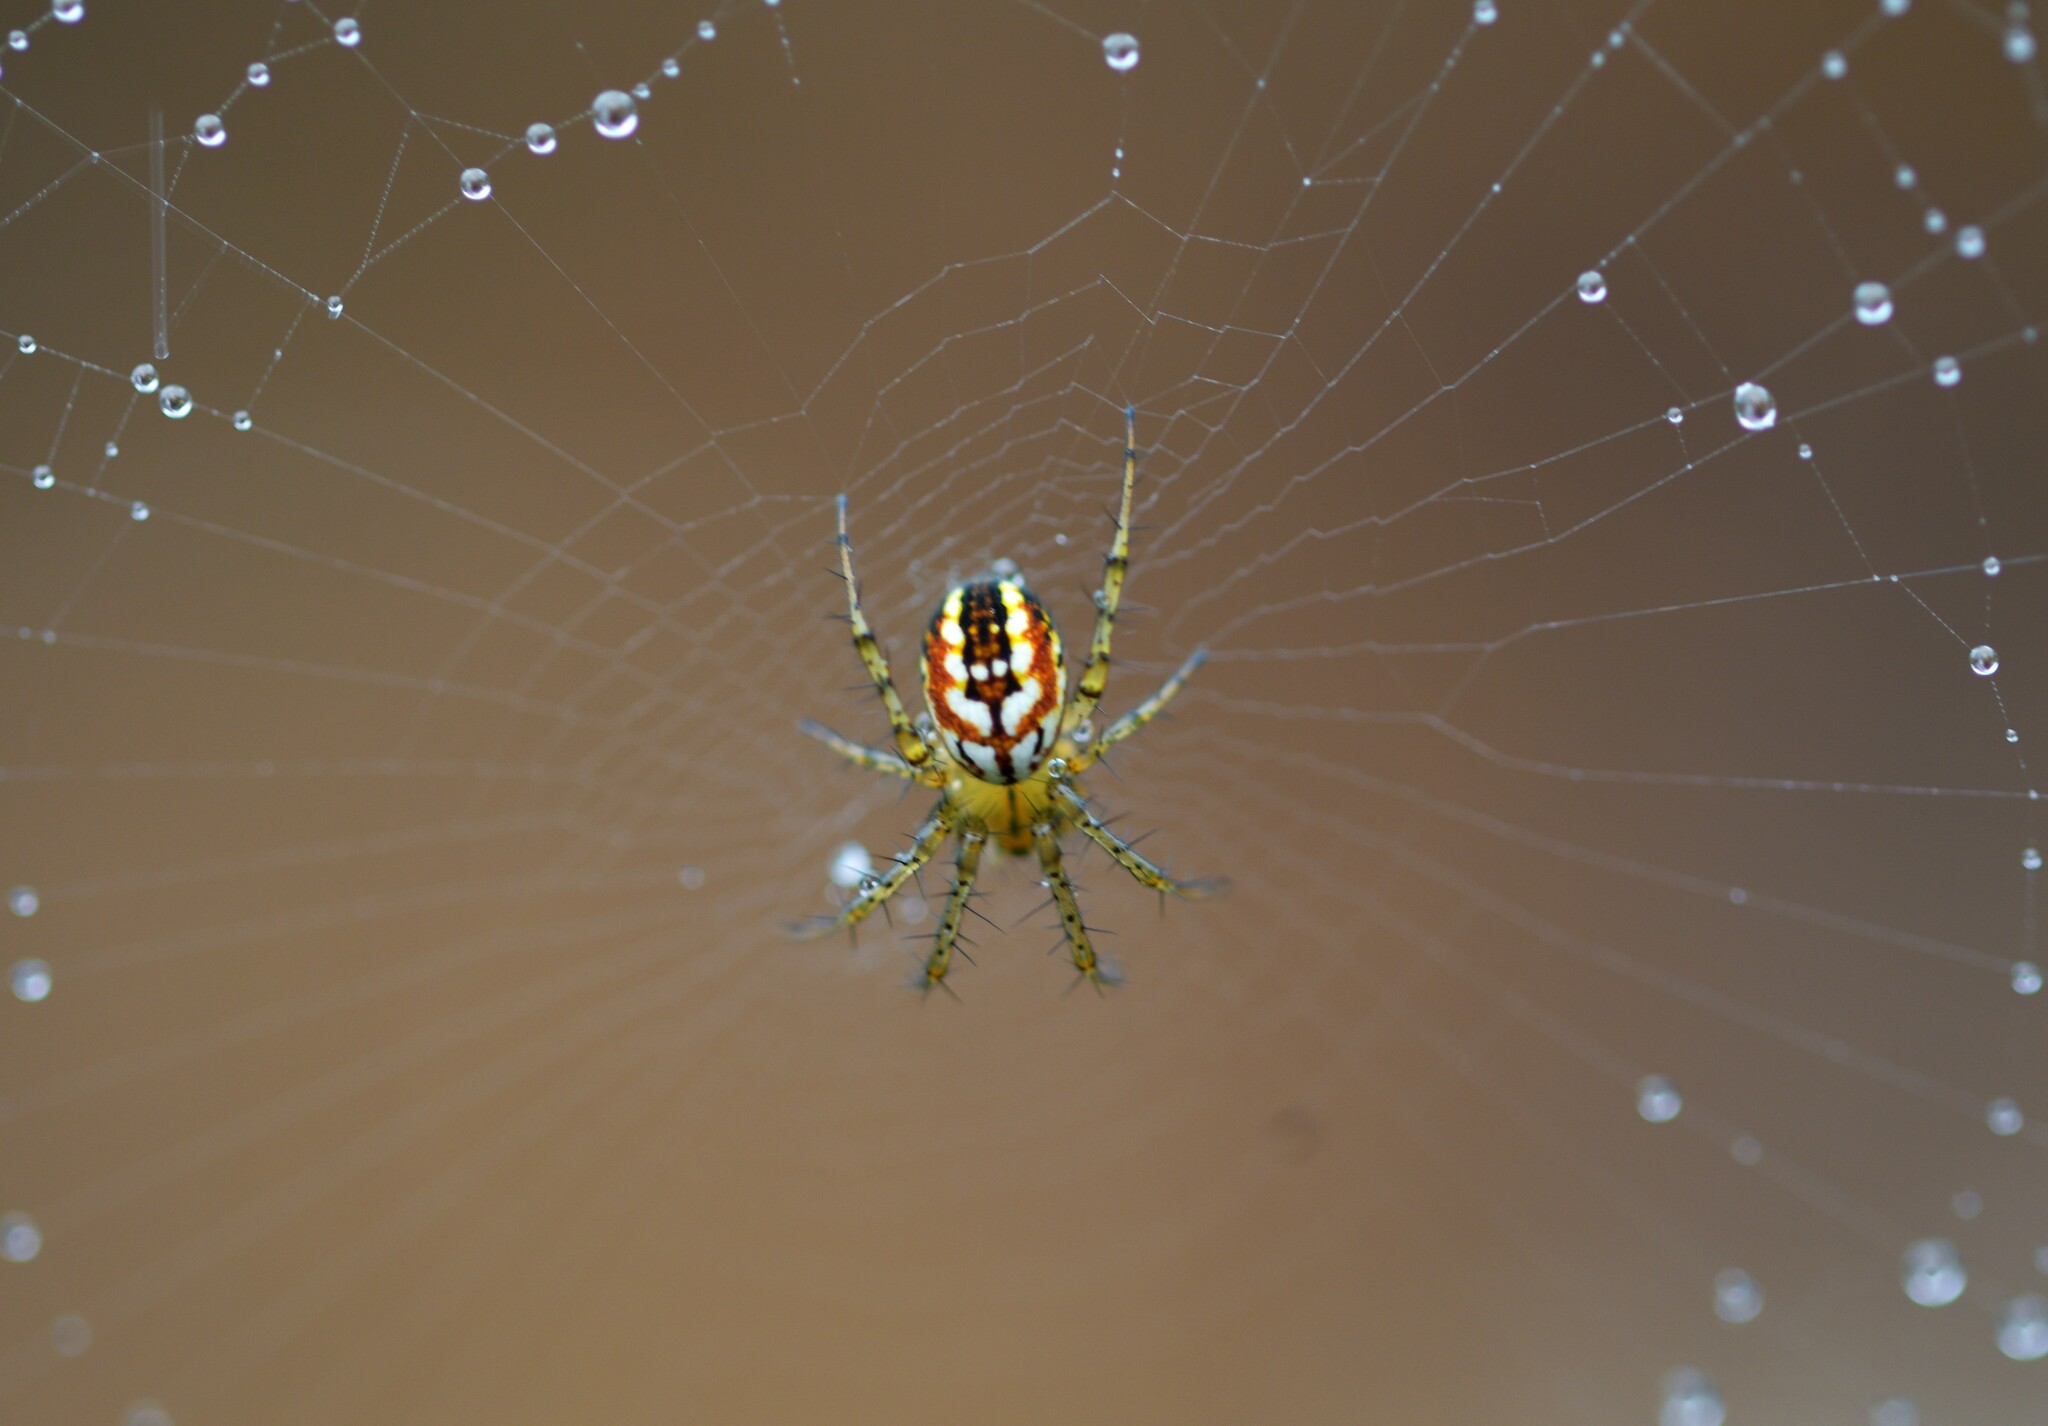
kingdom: Animalia
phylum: Arthropoda
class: Arachnida
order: Araneae
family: Araneidae
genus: Mangora
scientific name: Mangora acalypha
